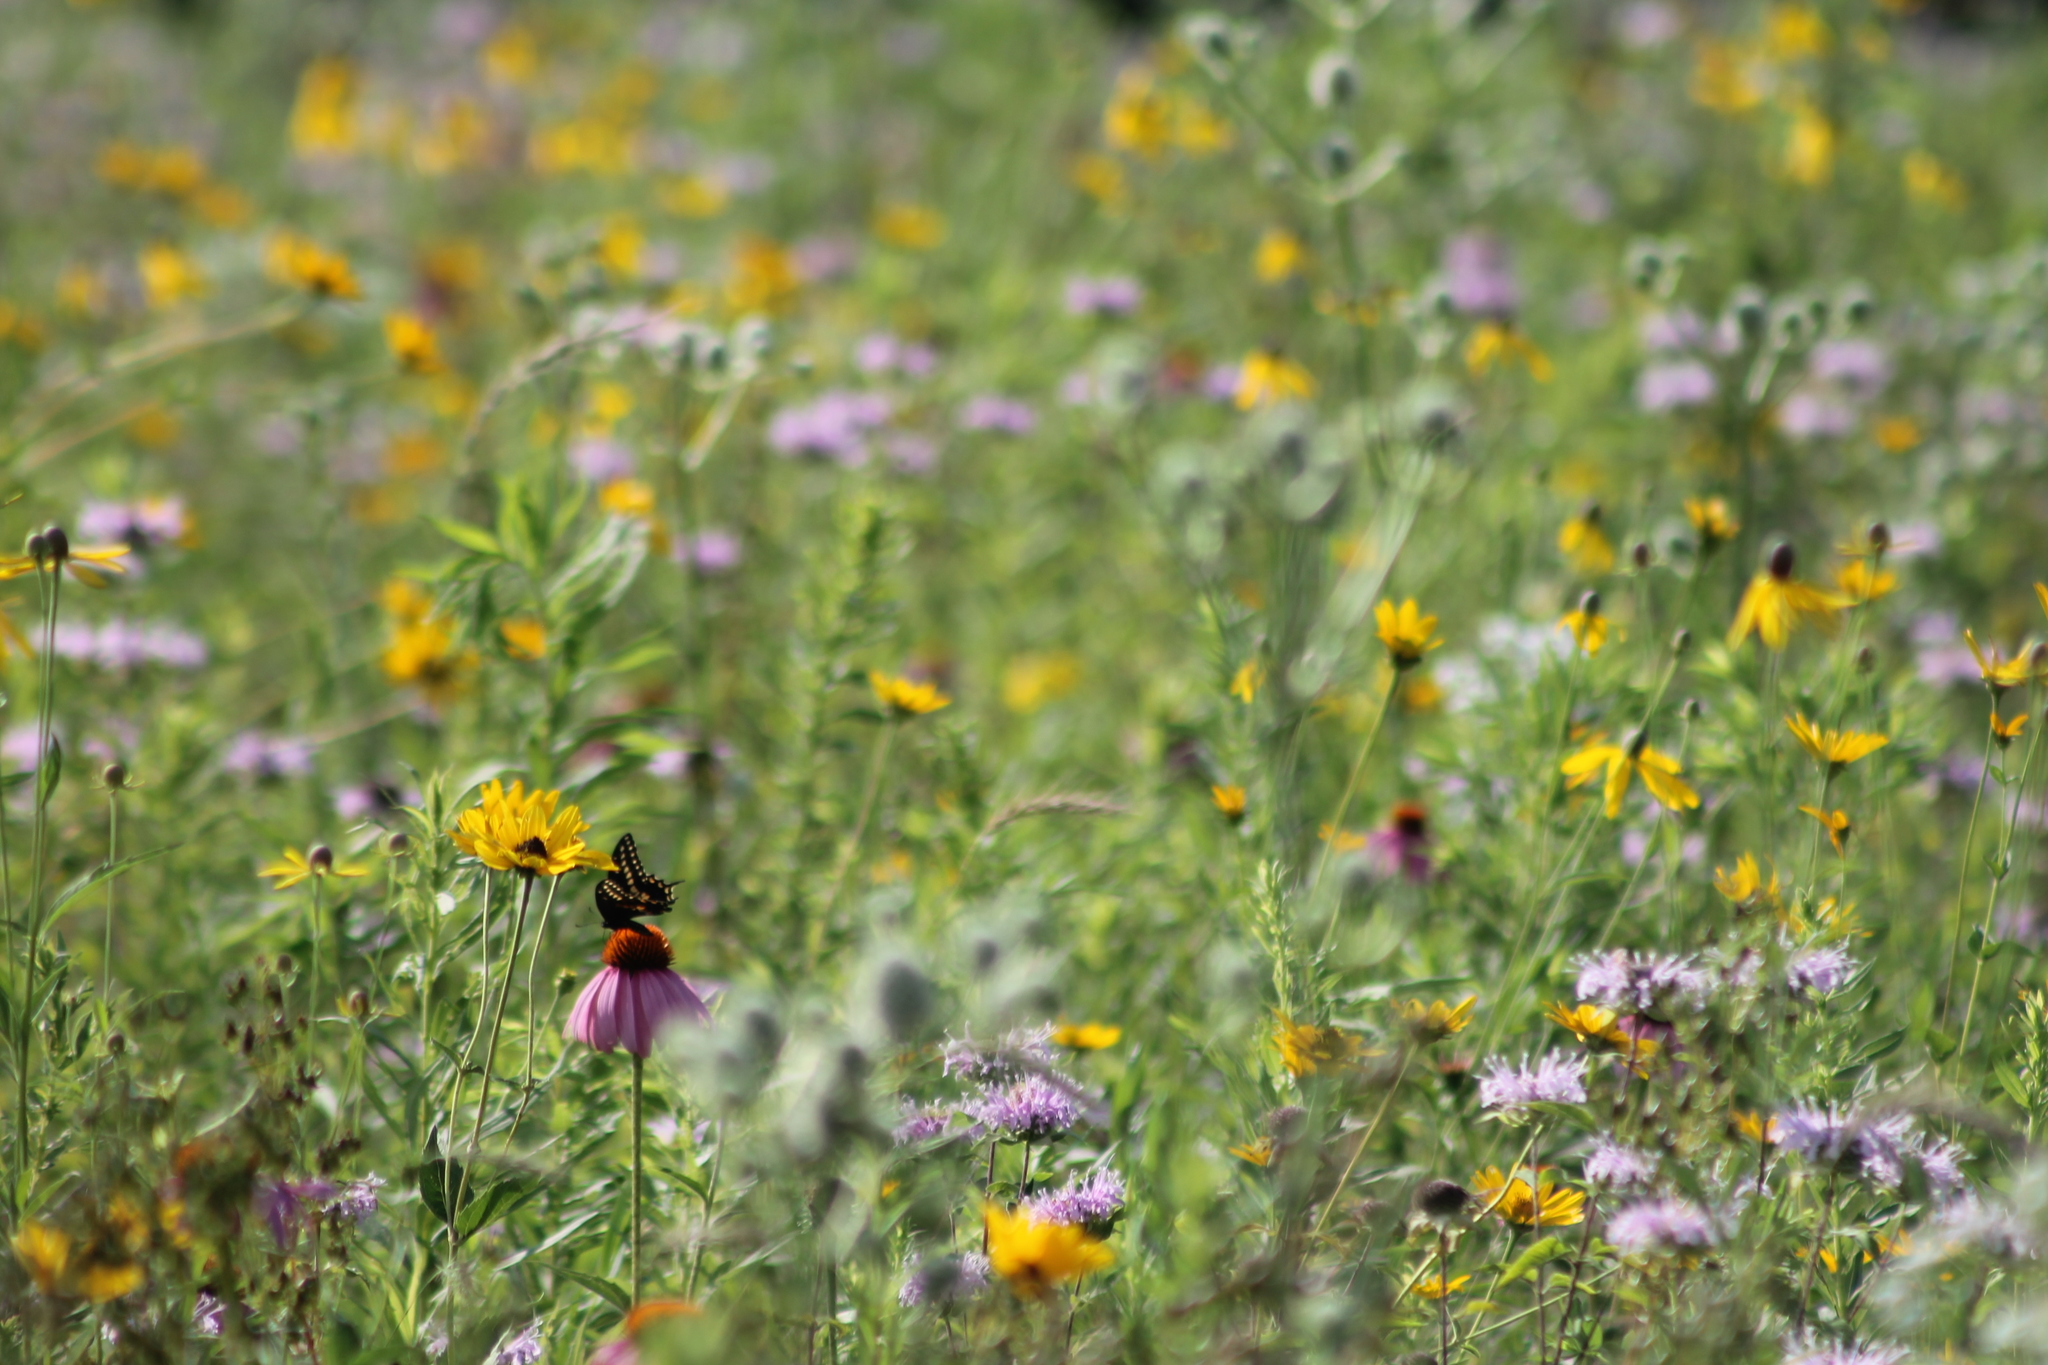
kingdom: Animalia
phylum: Arthropoda
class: Insecta
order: Lepidoptera
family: Papilionidae
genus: Papilio
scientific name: Papilio polyxenes
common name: Black swallowtail
